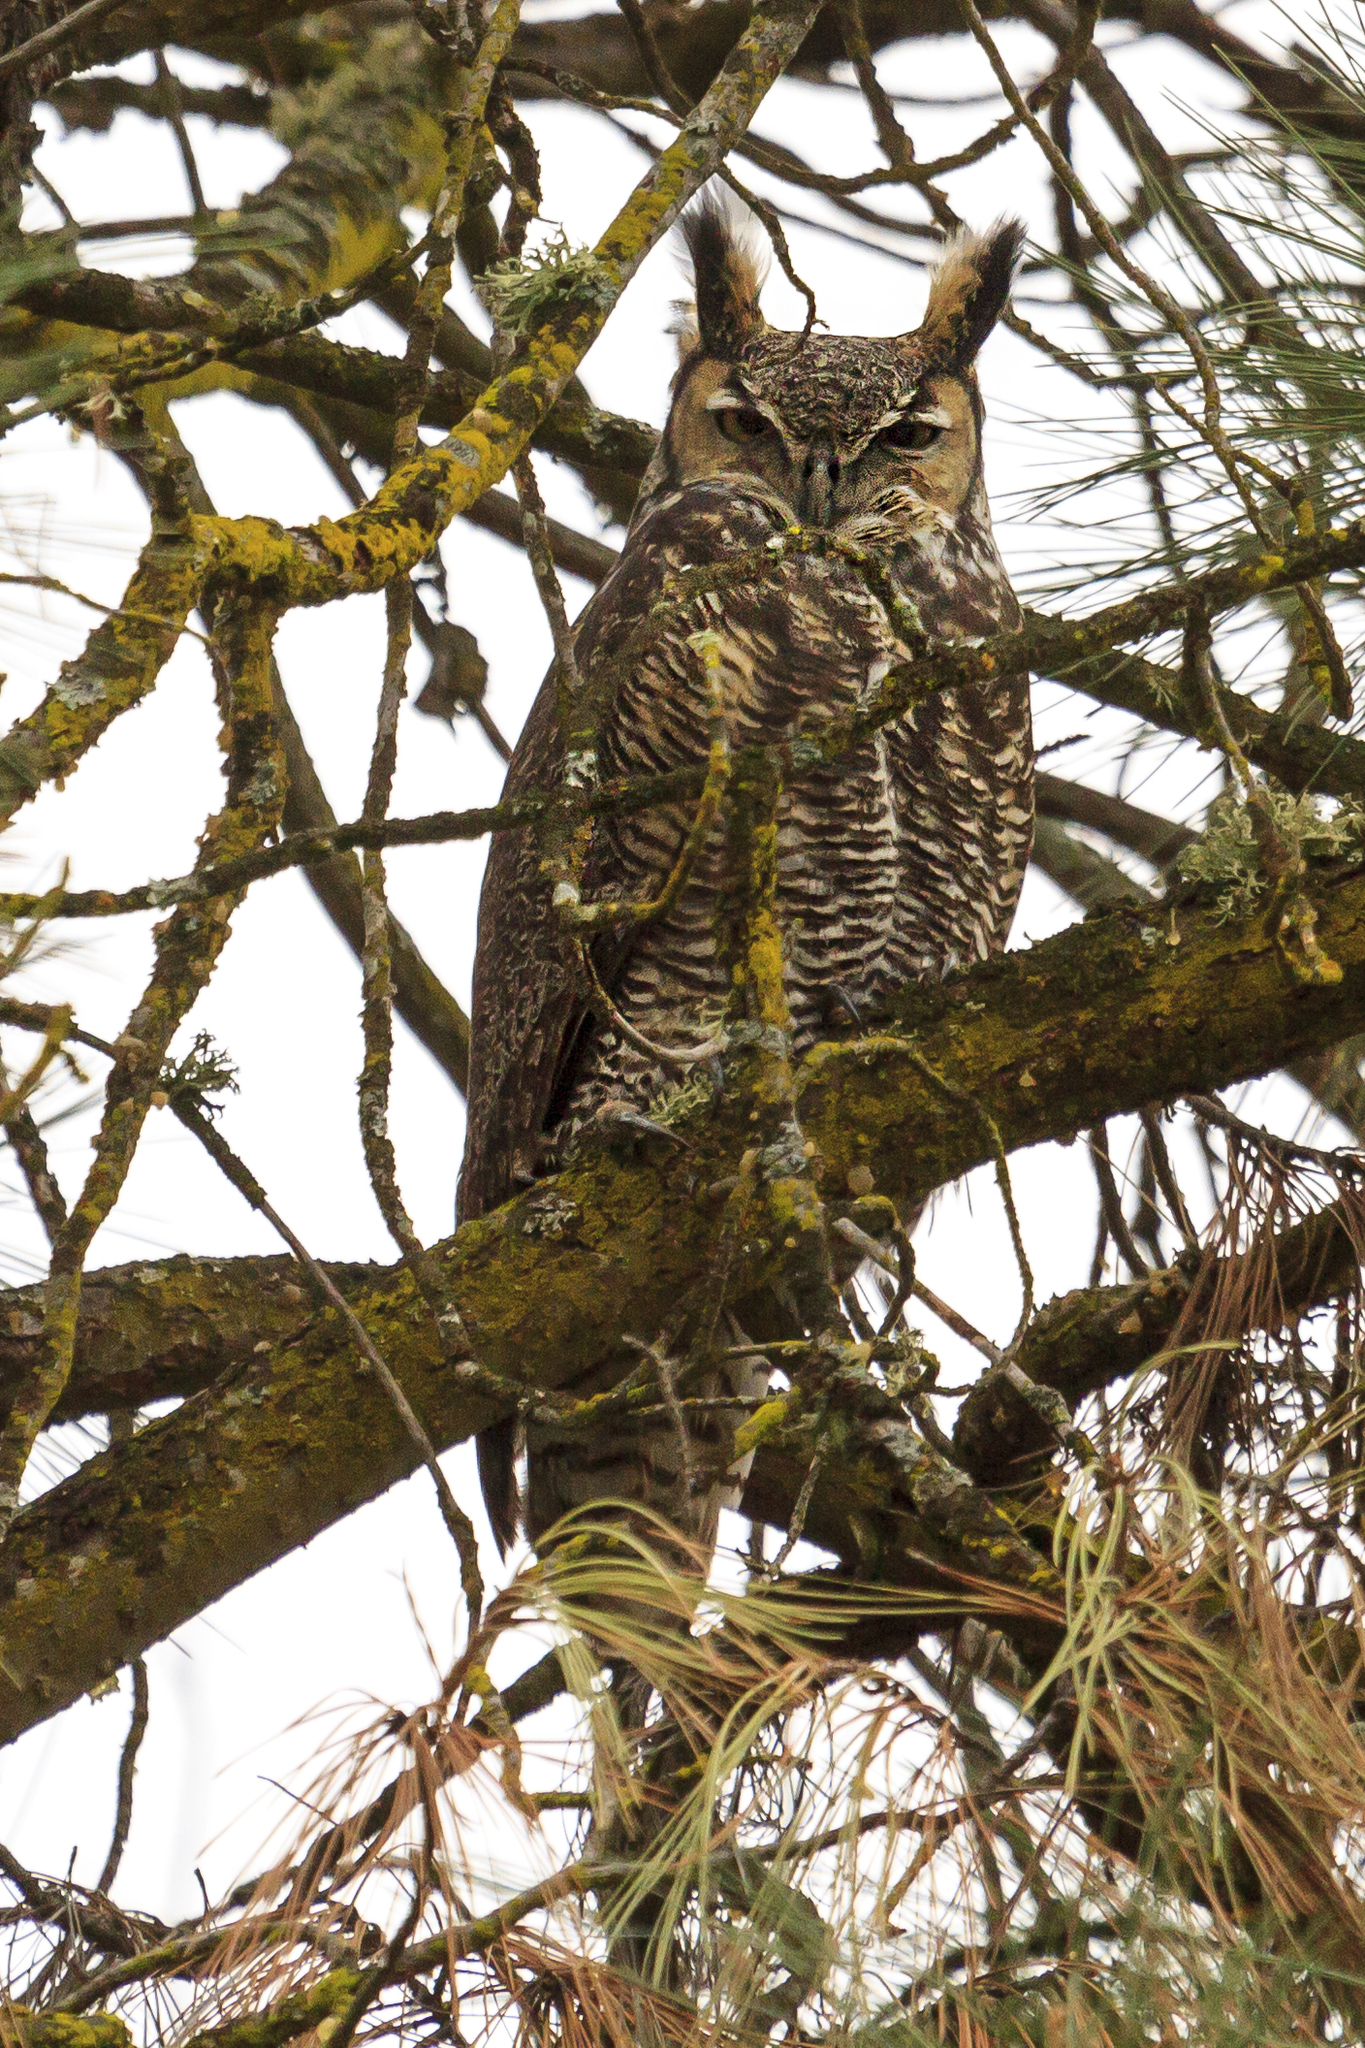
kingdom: Animalia
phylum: Chordata
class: Aves
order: Strigiformes
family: Strigidae
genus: Bubo
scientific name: Bubo virginianus
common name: Great horned owl
